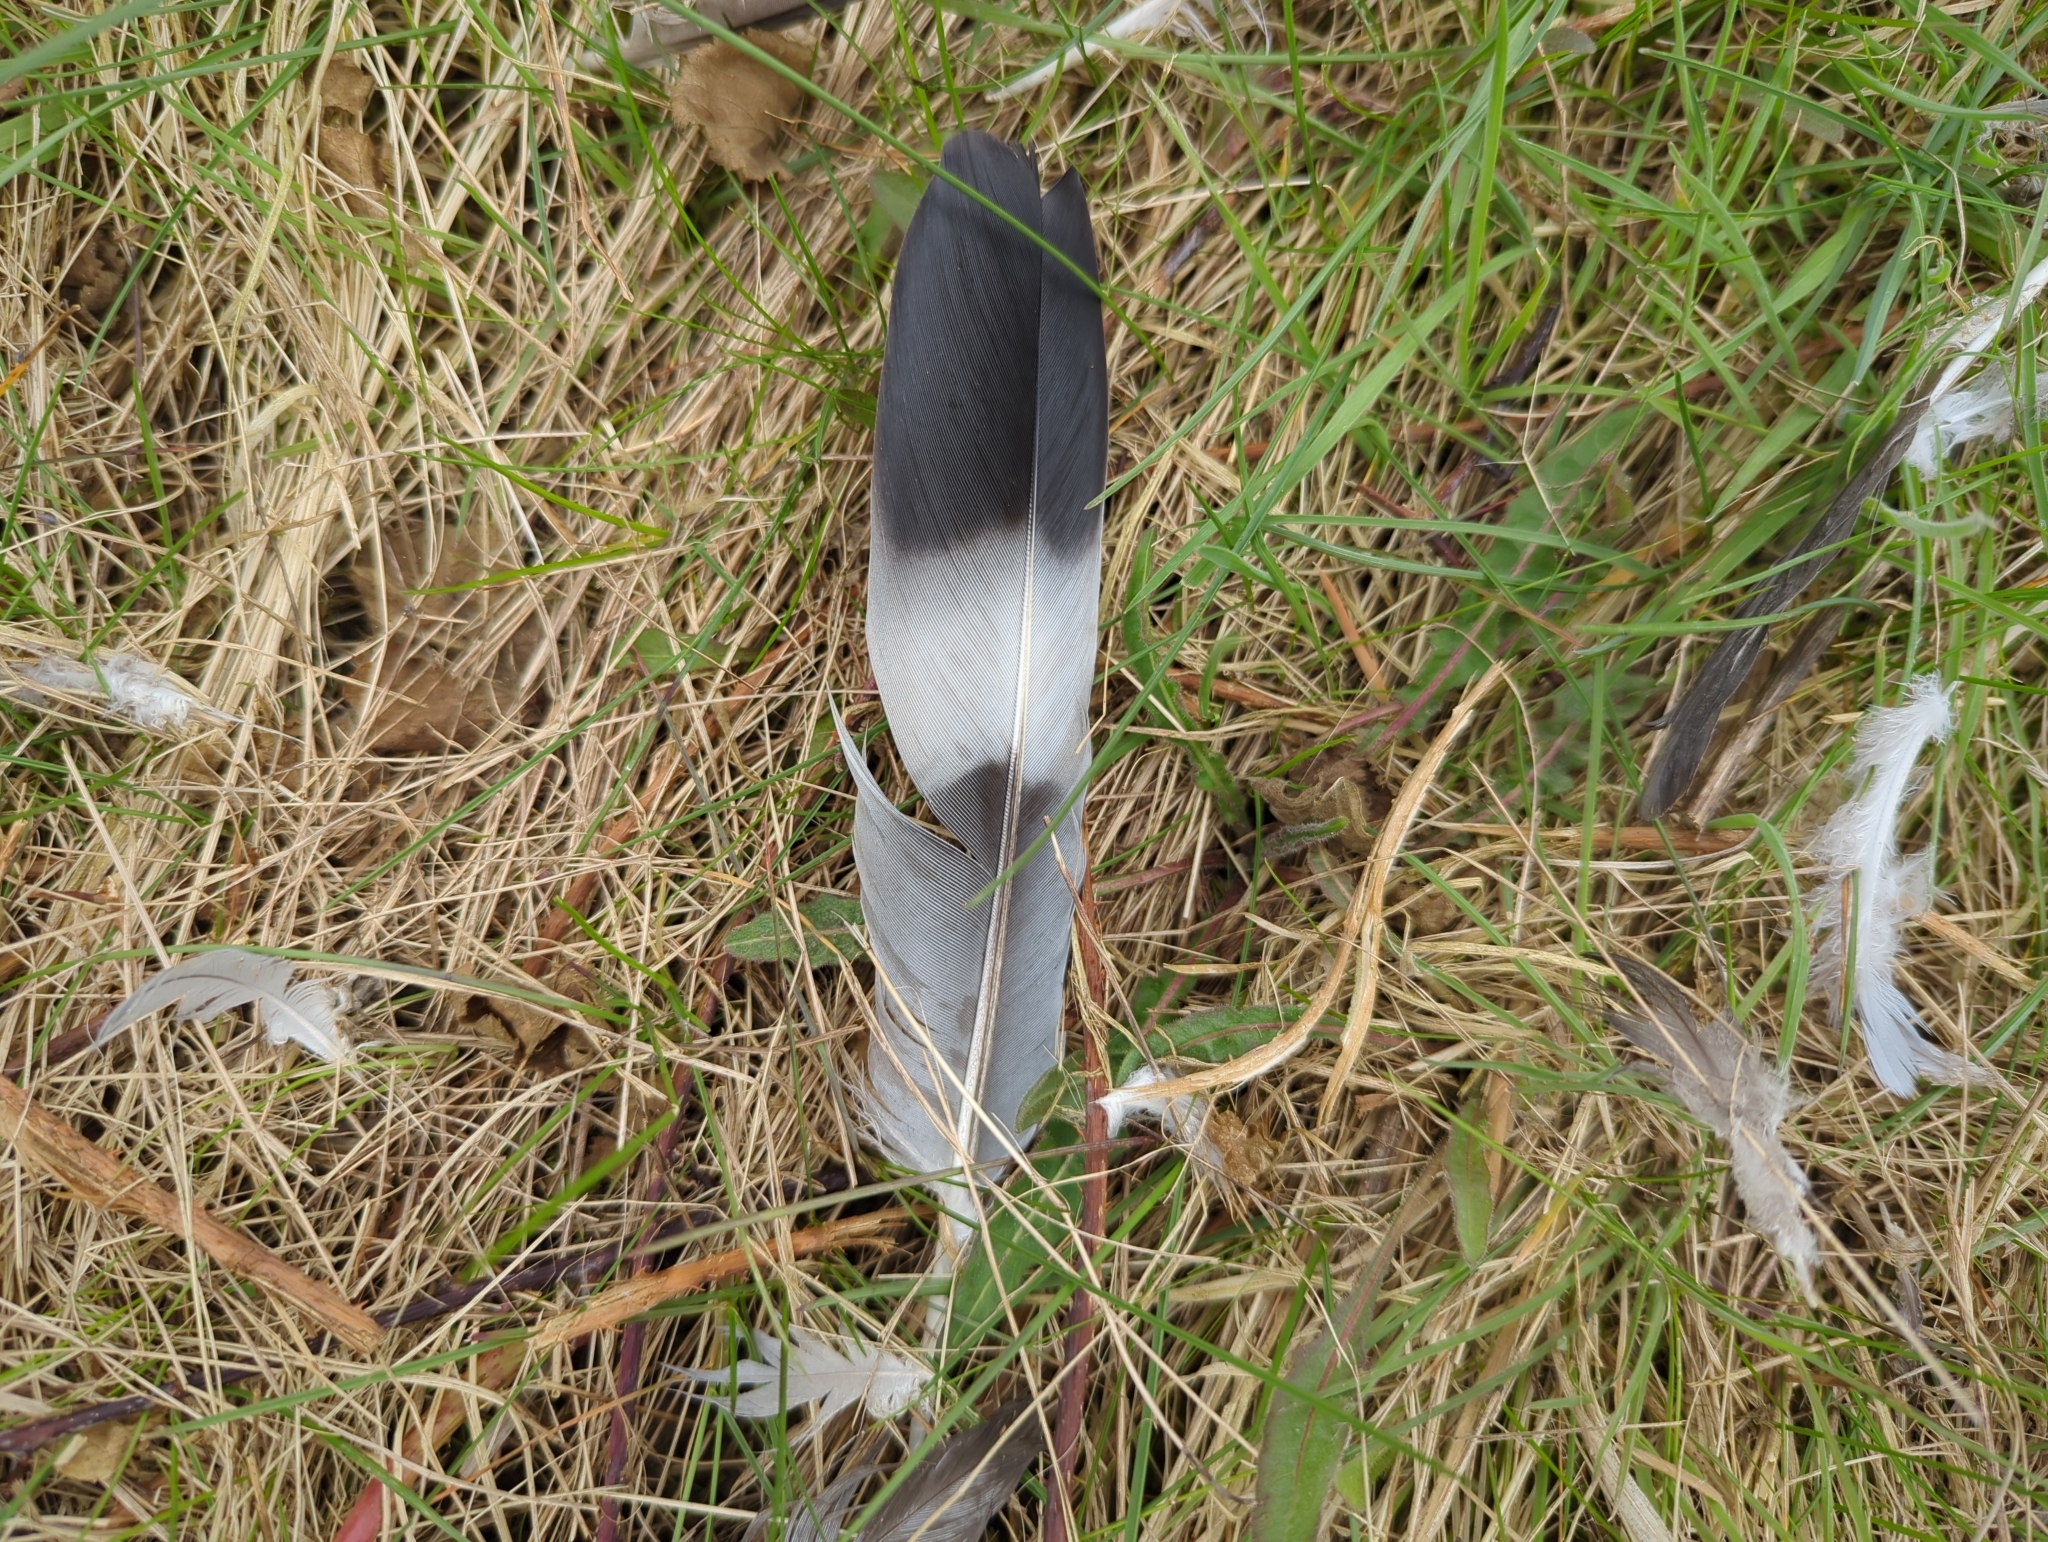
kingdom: Animalia
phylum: Chordata
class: Aves
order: Columbiformes
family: Columbidae
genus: Columba
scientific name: Columba palumbus
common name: Common wood pigeon
